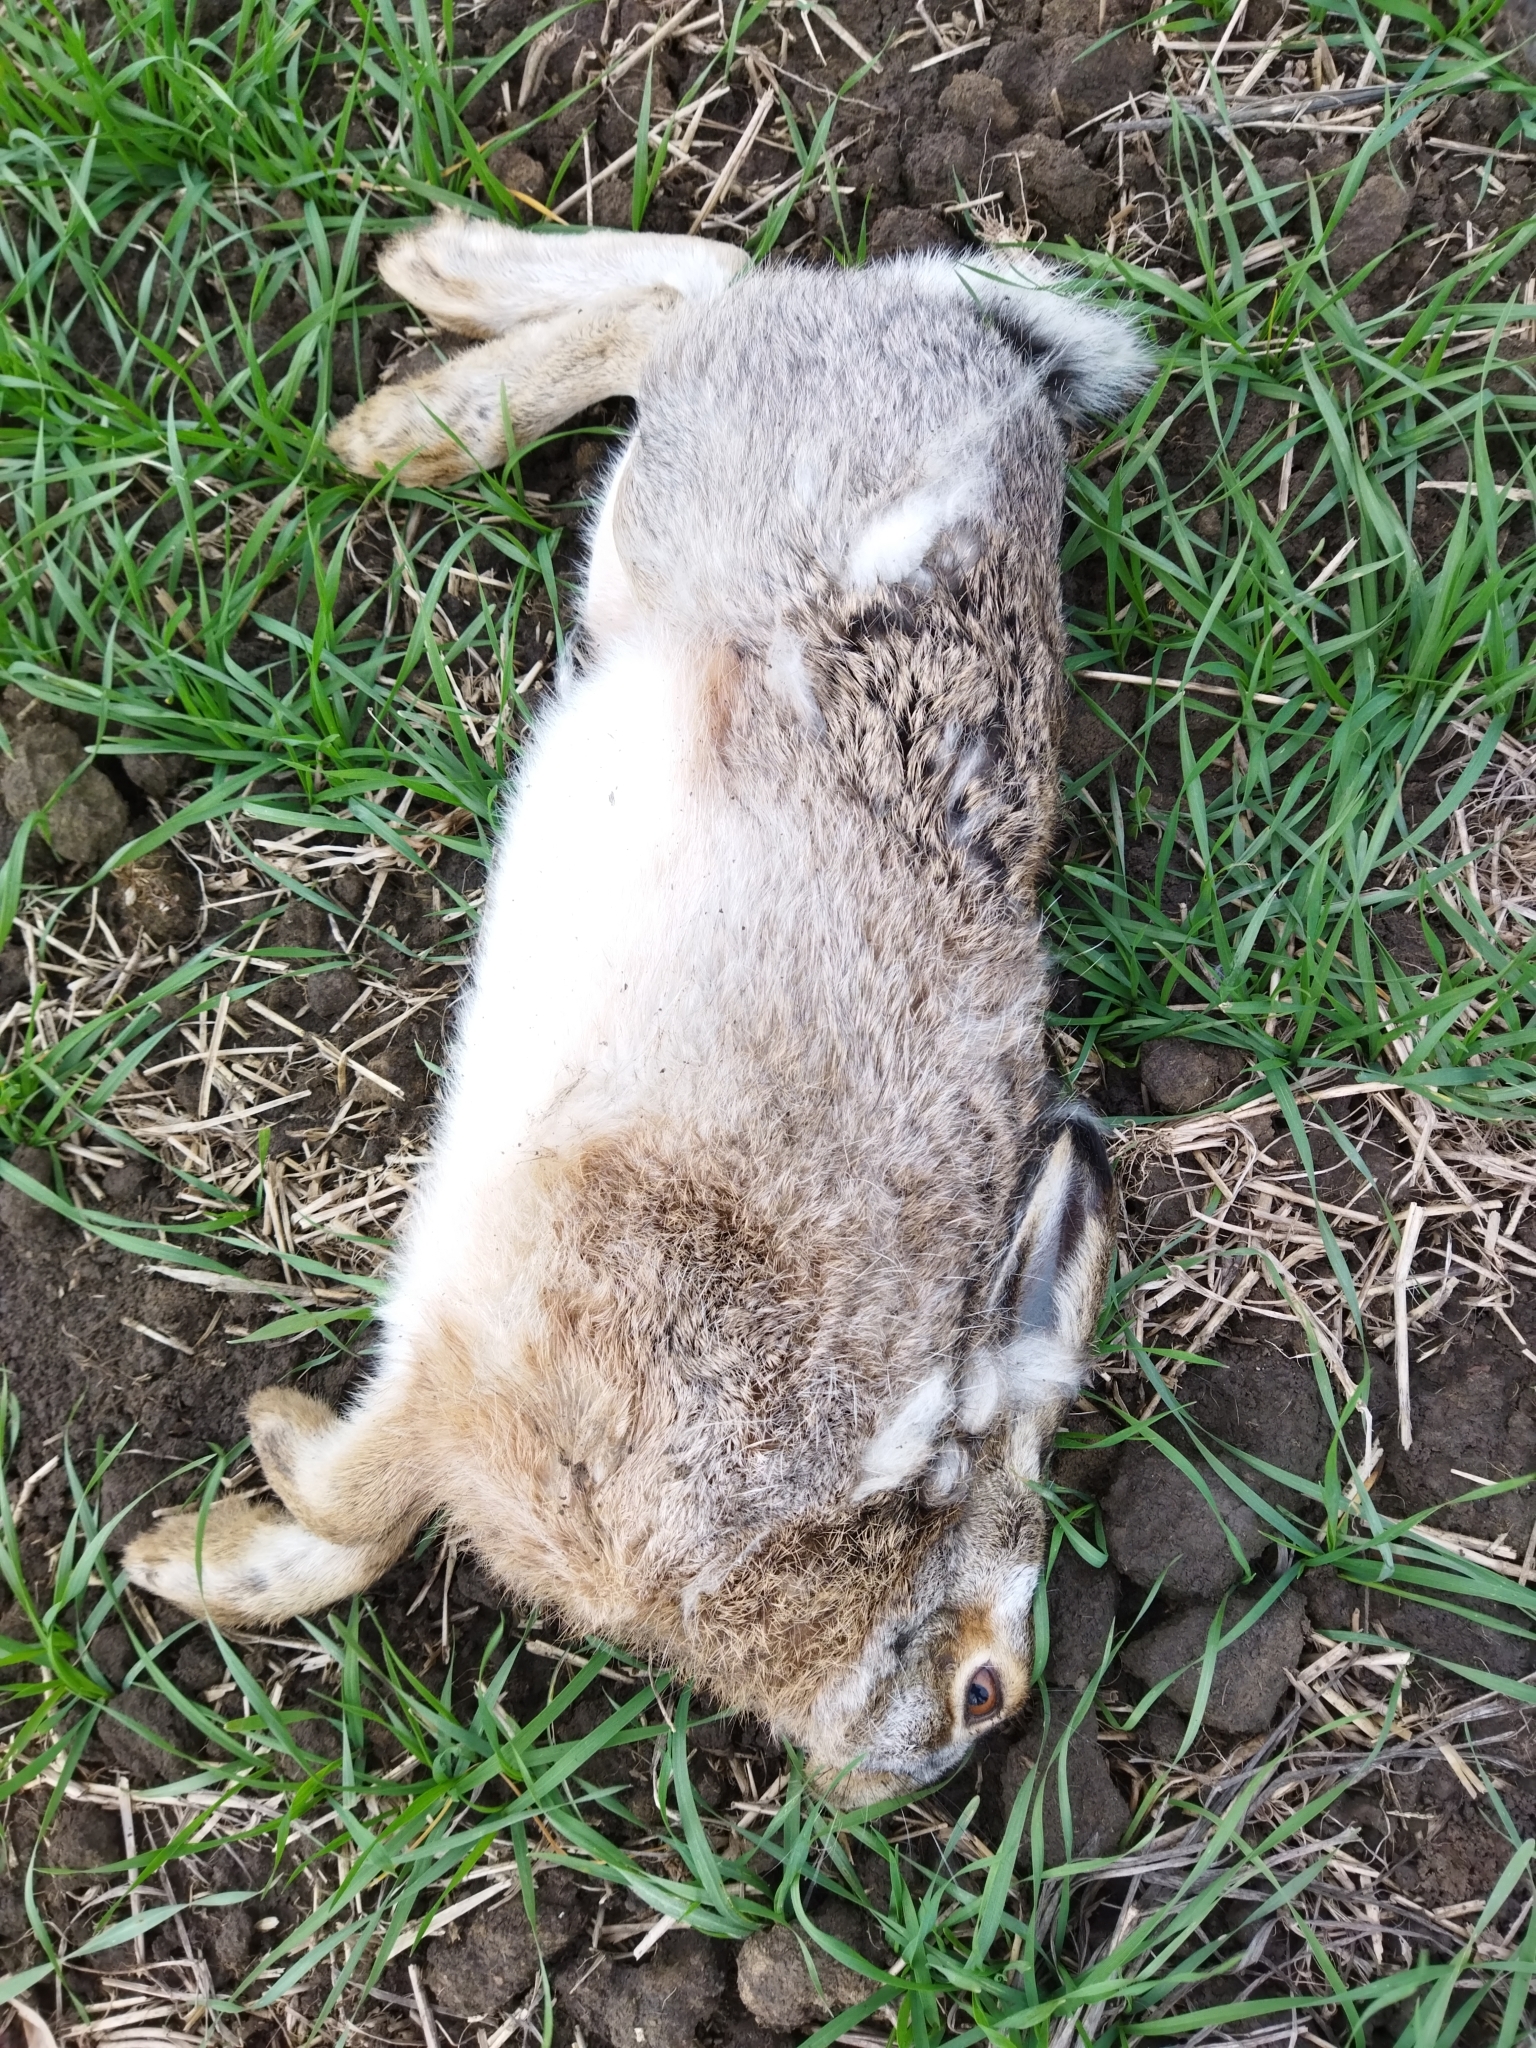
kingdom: Animalia
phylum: Chordata
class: Mammalia
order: Lagomorpha
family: Leporidae
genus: Lepus
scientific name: Lepus europaeus
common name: European hare
